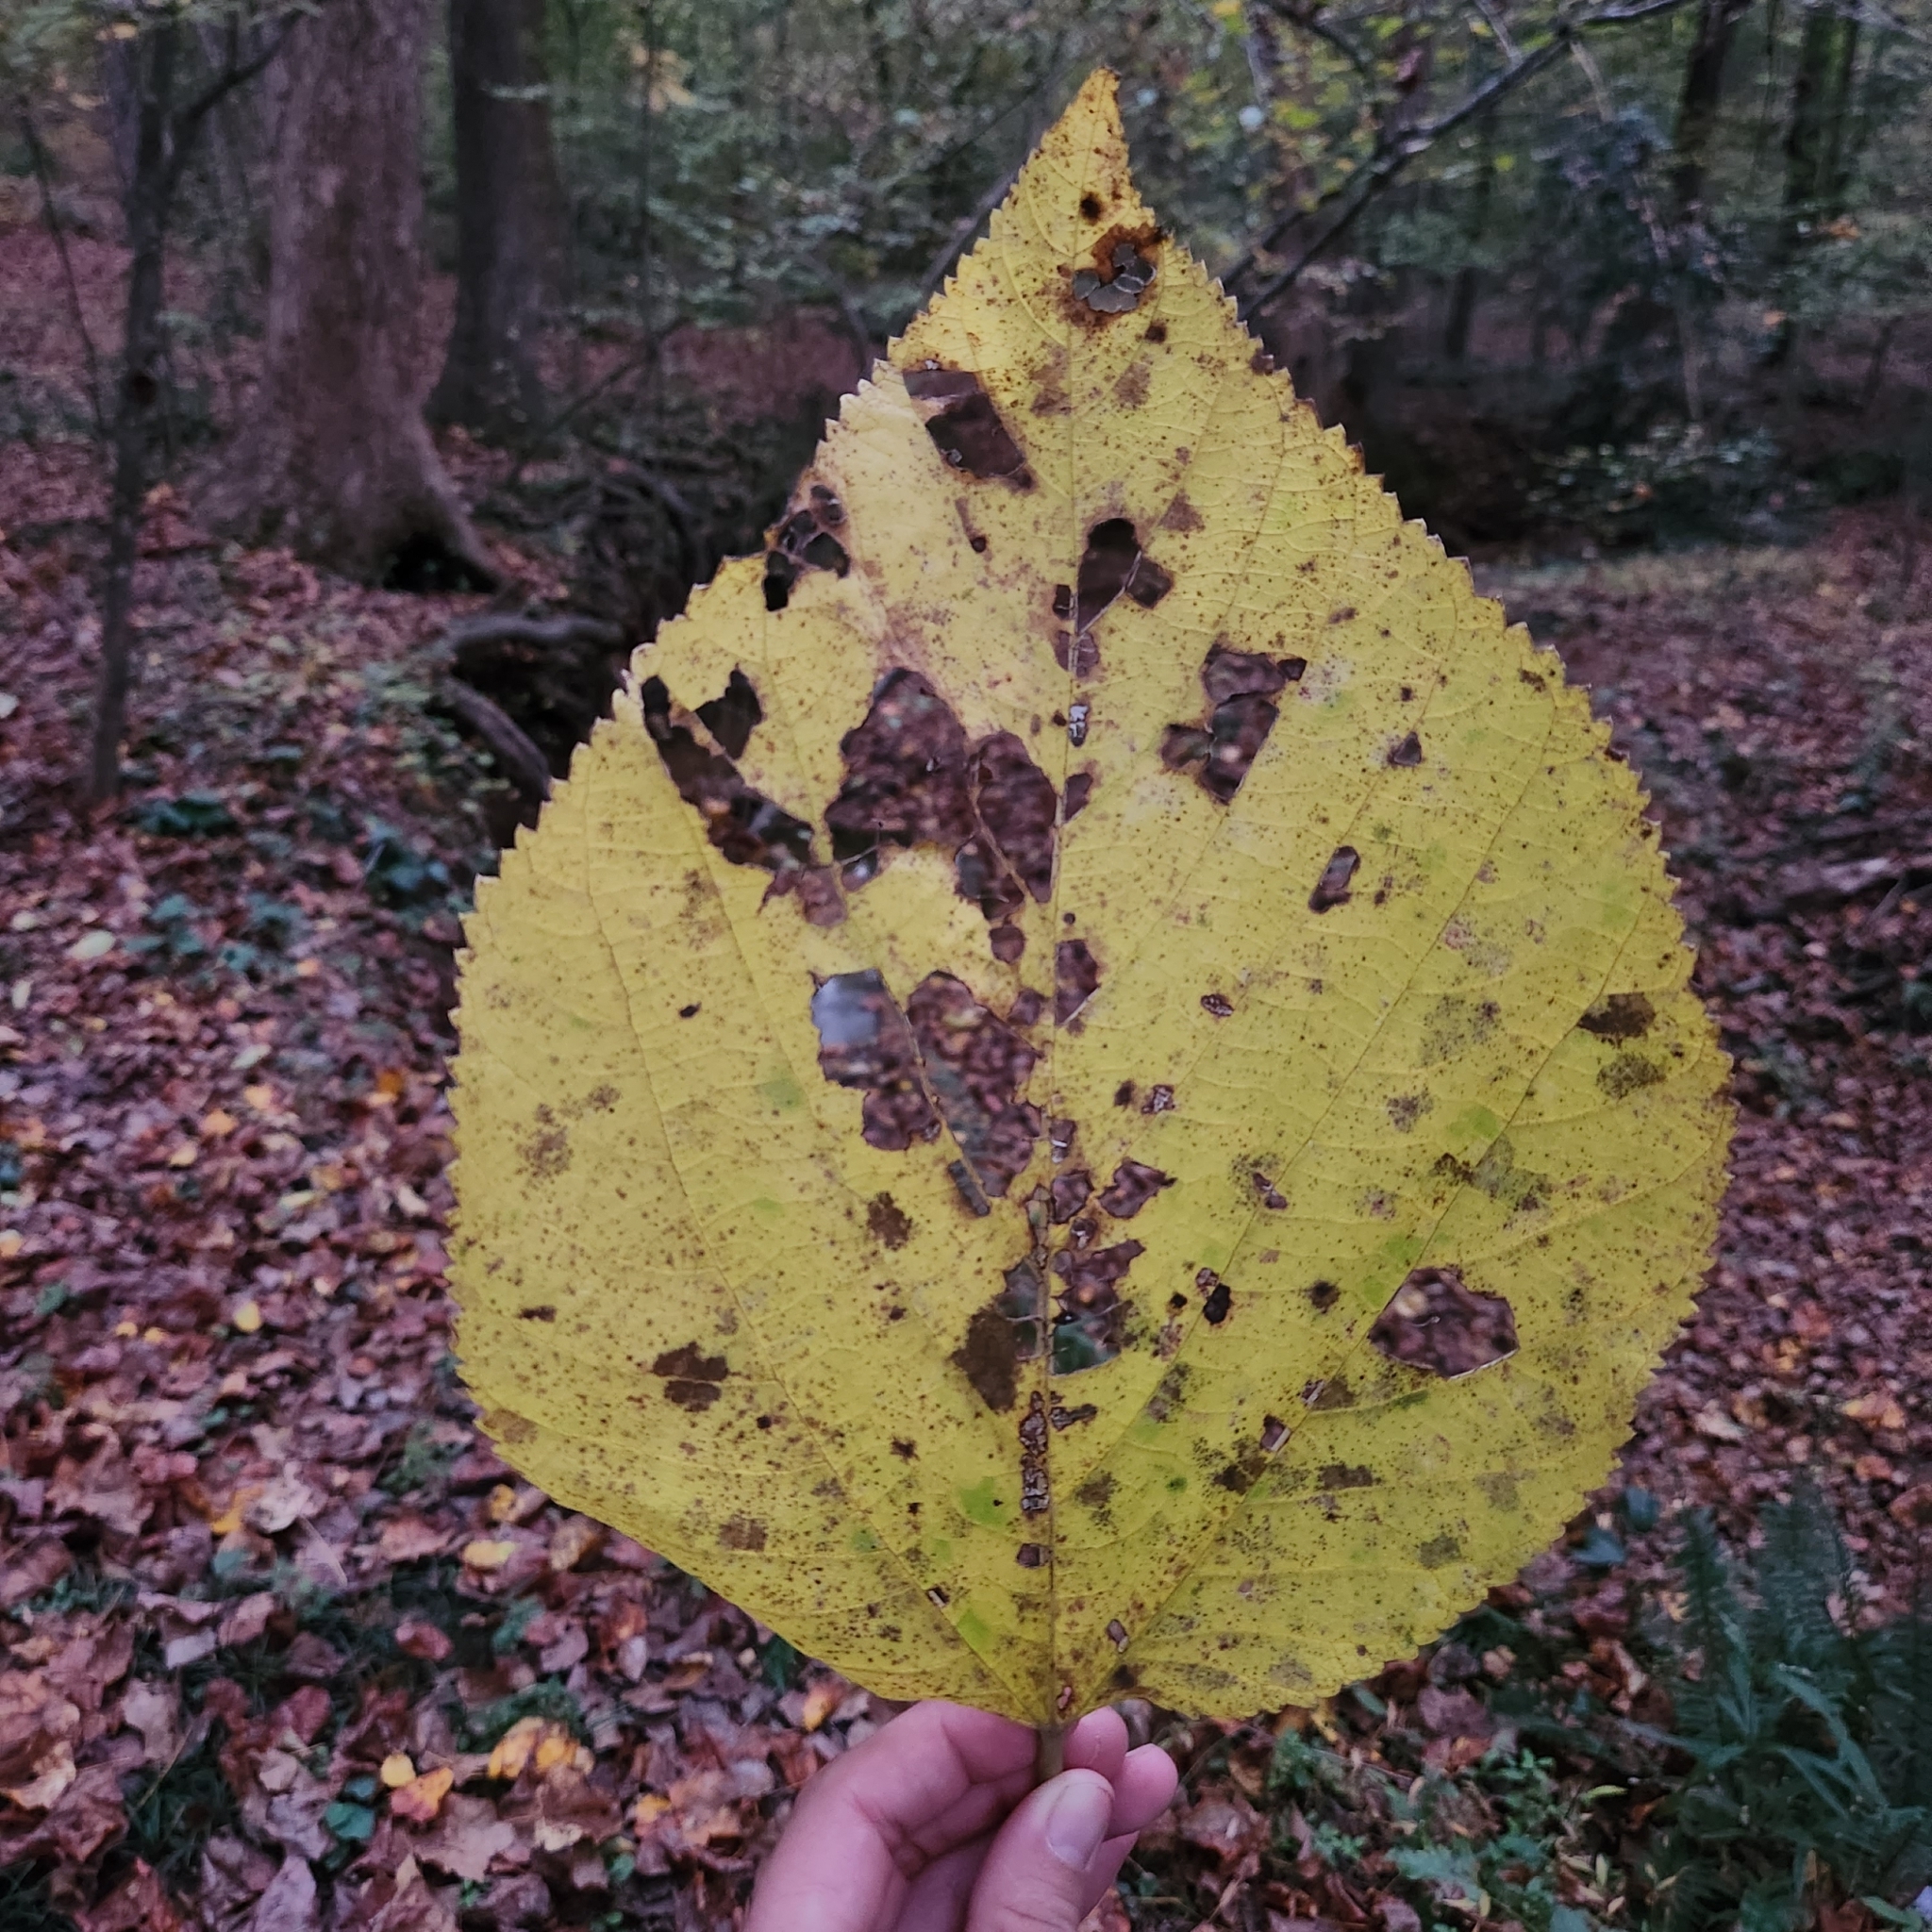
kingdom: Plantae
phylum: Tracheophyta
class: Magnoliopsida
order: Rosales
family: Moraceae
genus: Morus
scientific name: Morus rubra
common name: Red mulberry
